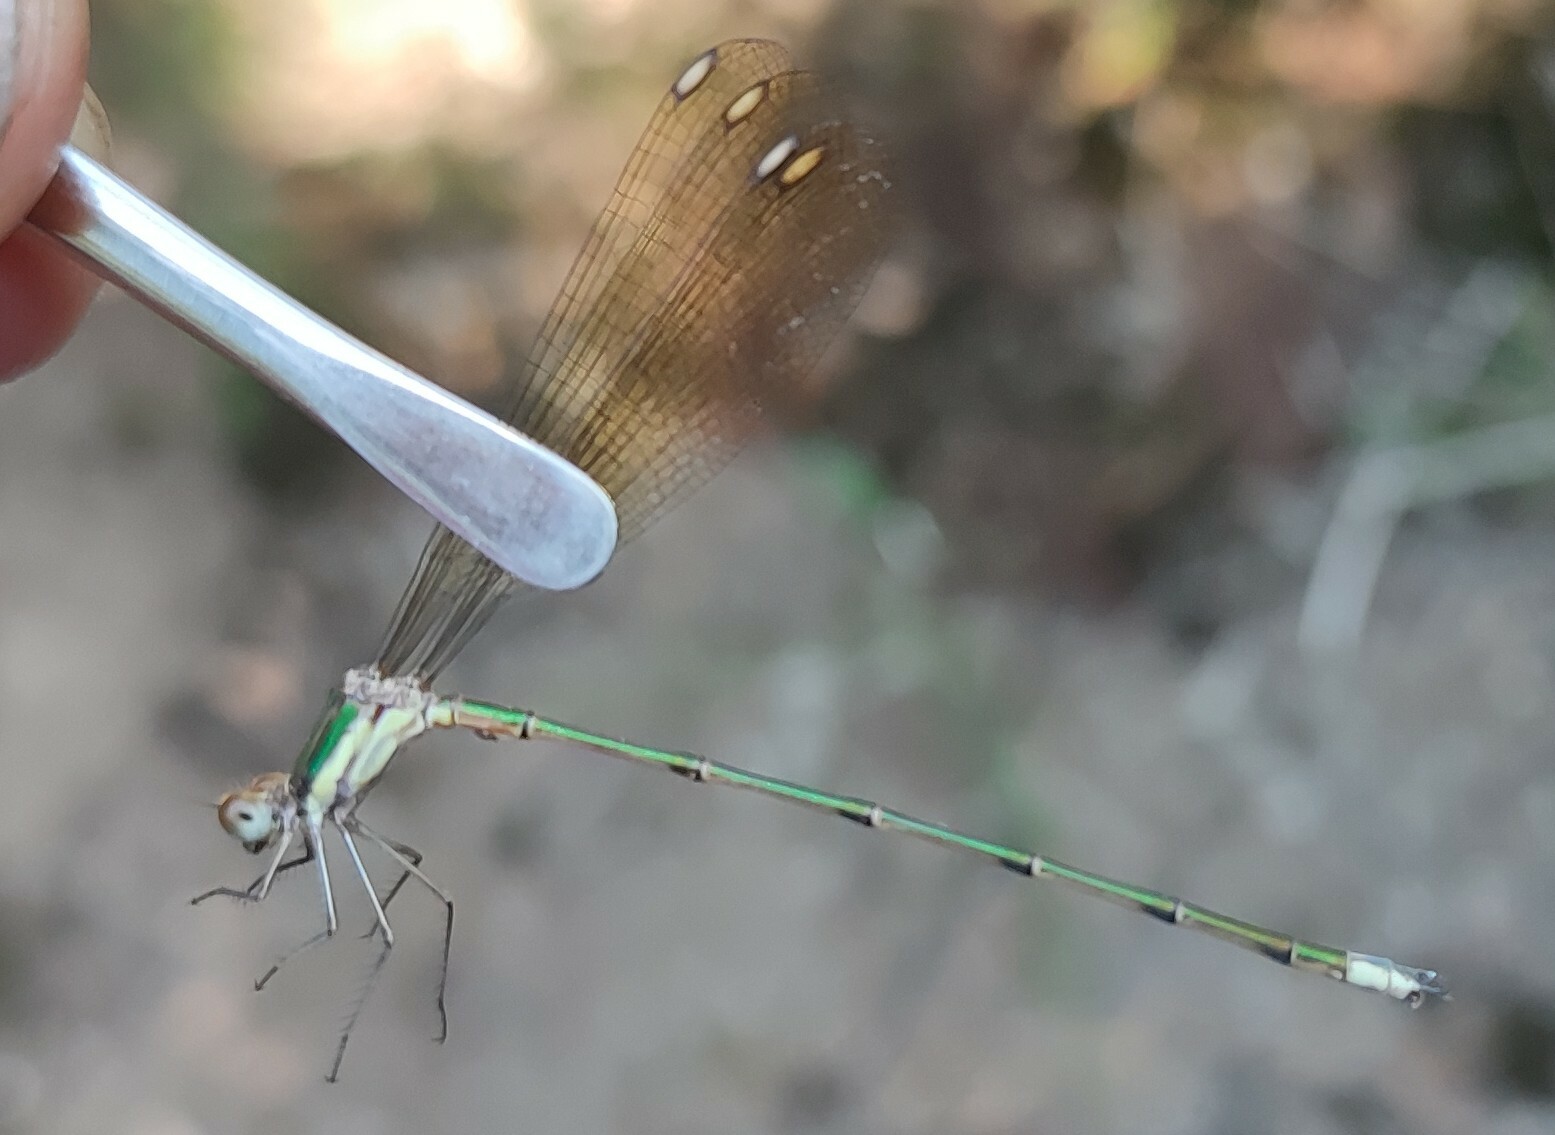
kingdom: Animalia
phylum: Arthropoda
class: Insecta
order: Odonata
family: Lestidae
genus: Lestes
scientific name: Lestes virgatus
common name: Smoky spreadwing
